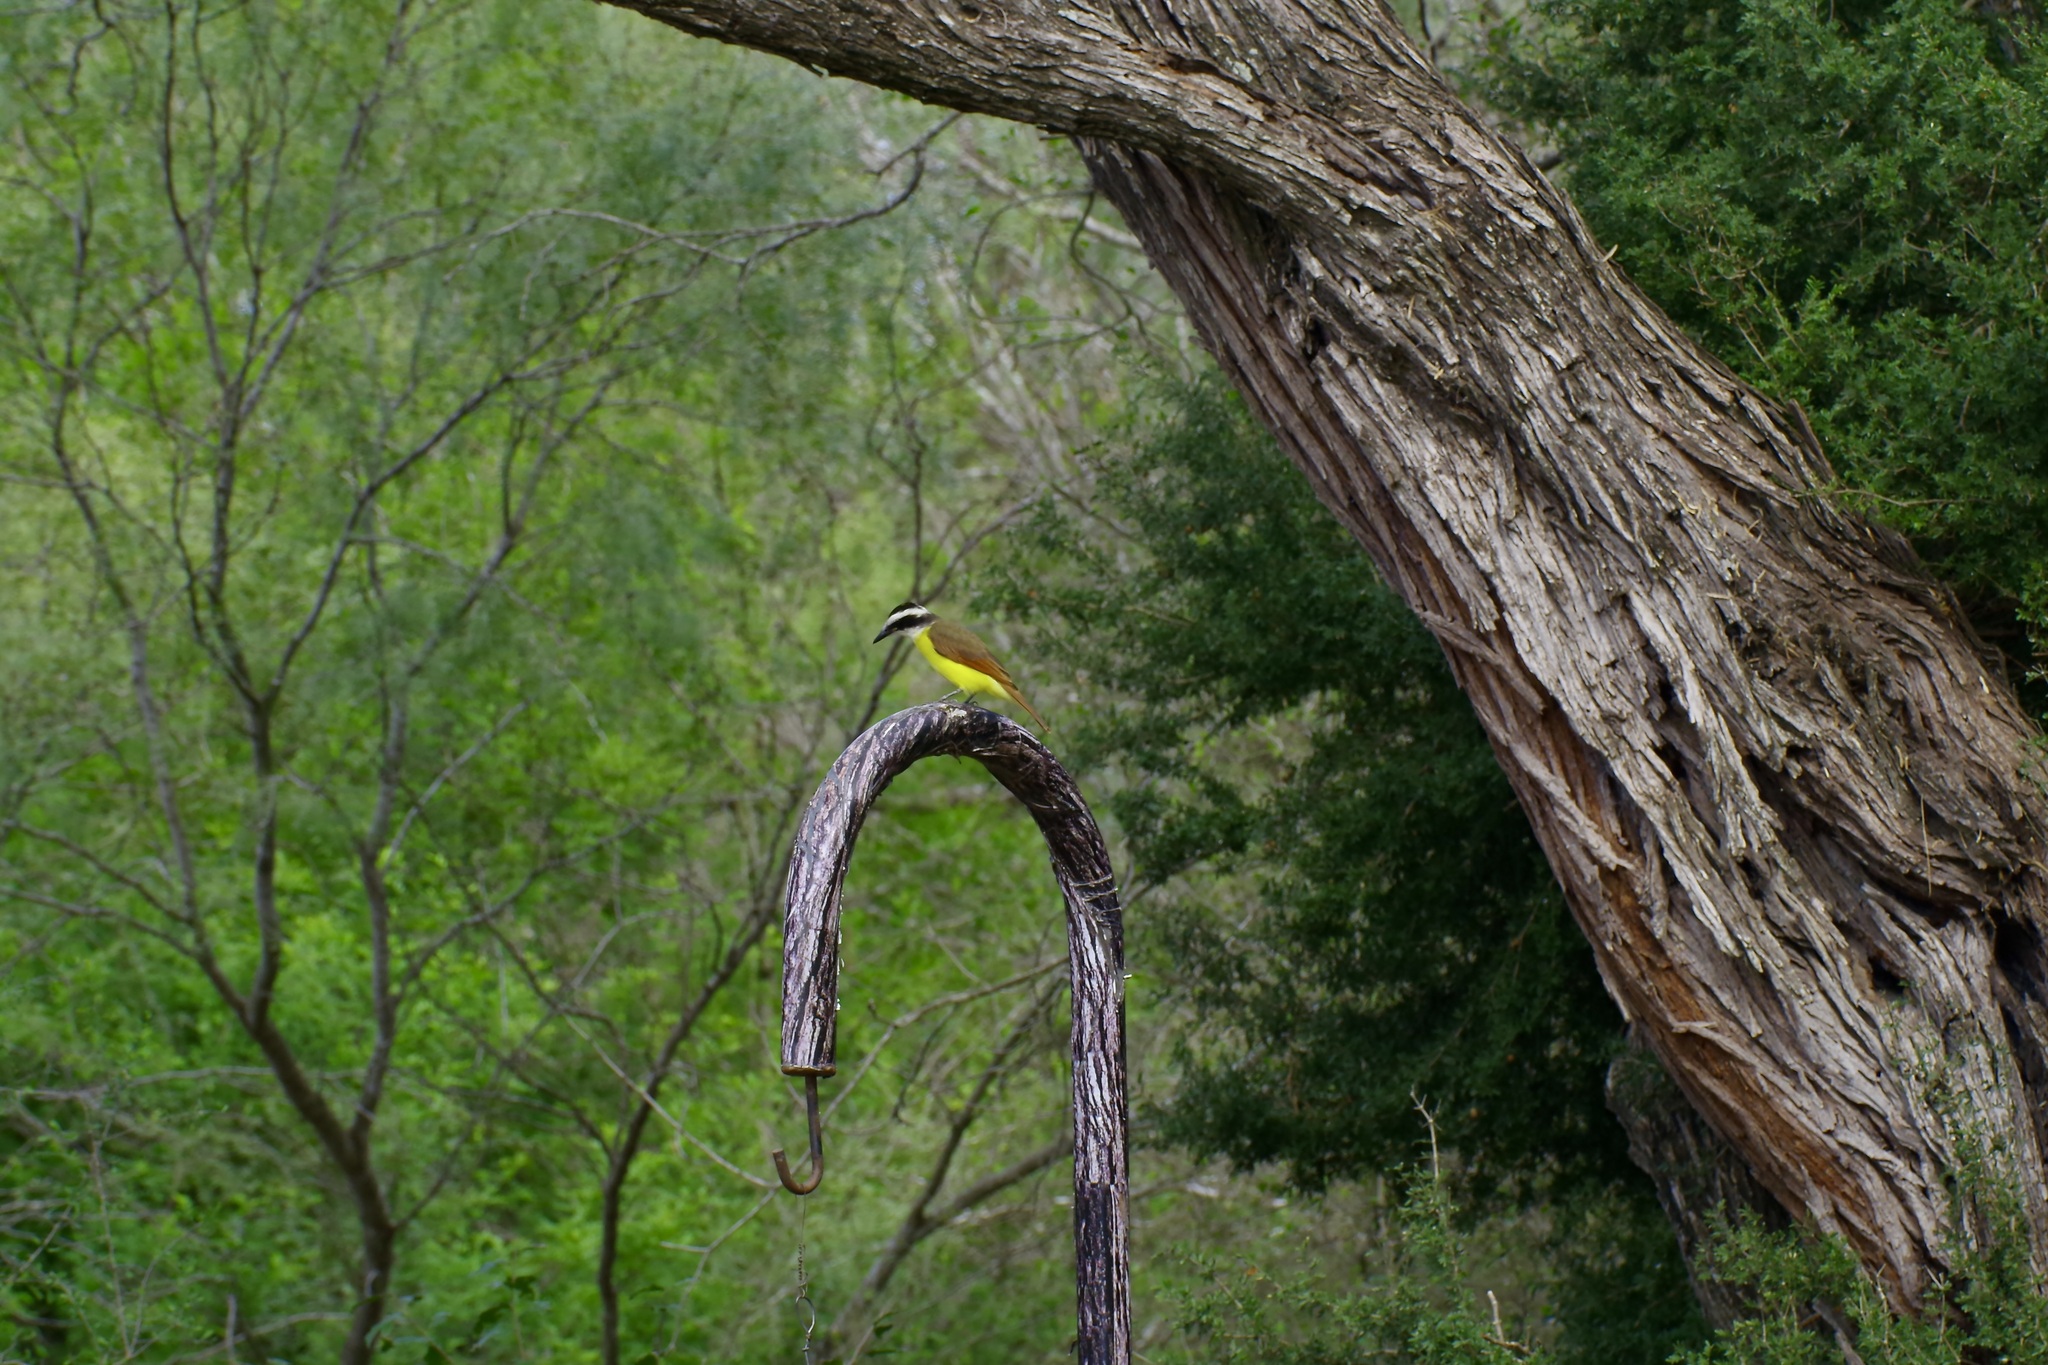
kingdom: Animalia
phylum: Chordata
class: Aves
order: Passeriformes
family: Tyrannidae
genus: Pitangus
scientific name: Pitangus sulphuratus
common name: Great kiskadee
